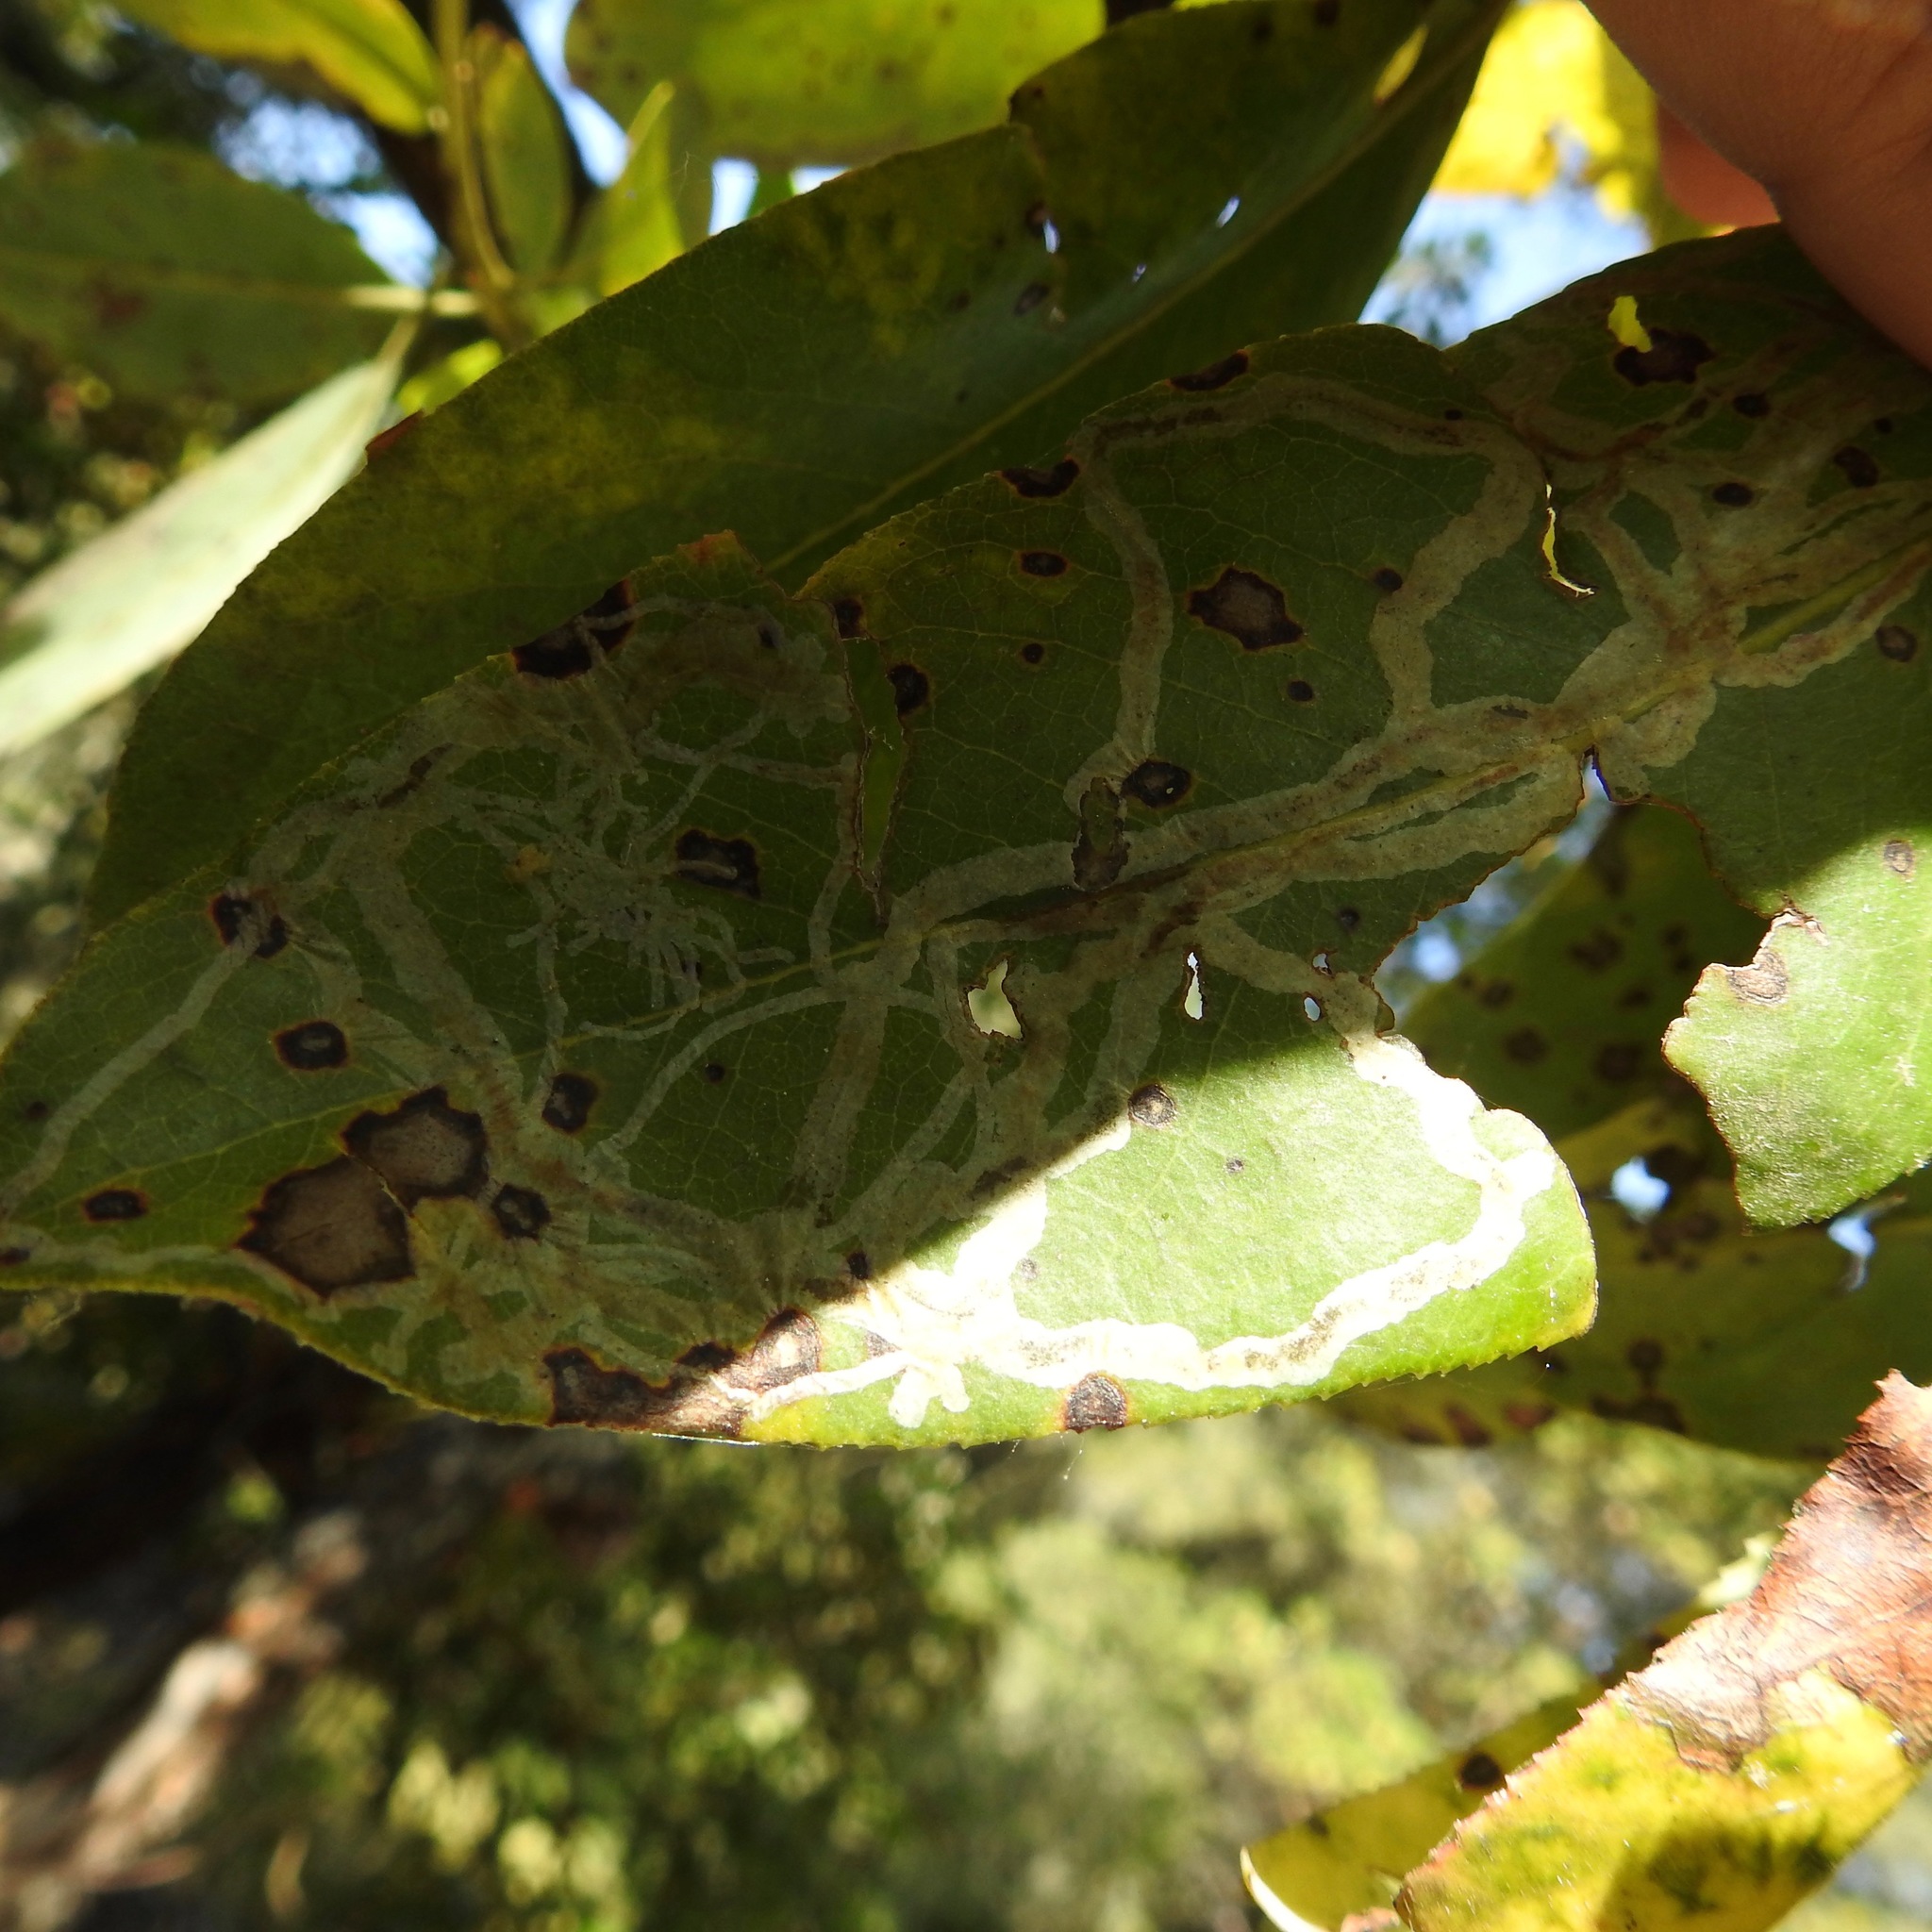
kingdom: Animalia
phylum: Arthropoda
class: Insecta
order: Lepidoptera
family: Gracillariidae
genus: Marmara
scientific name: Marmara arbutiella
